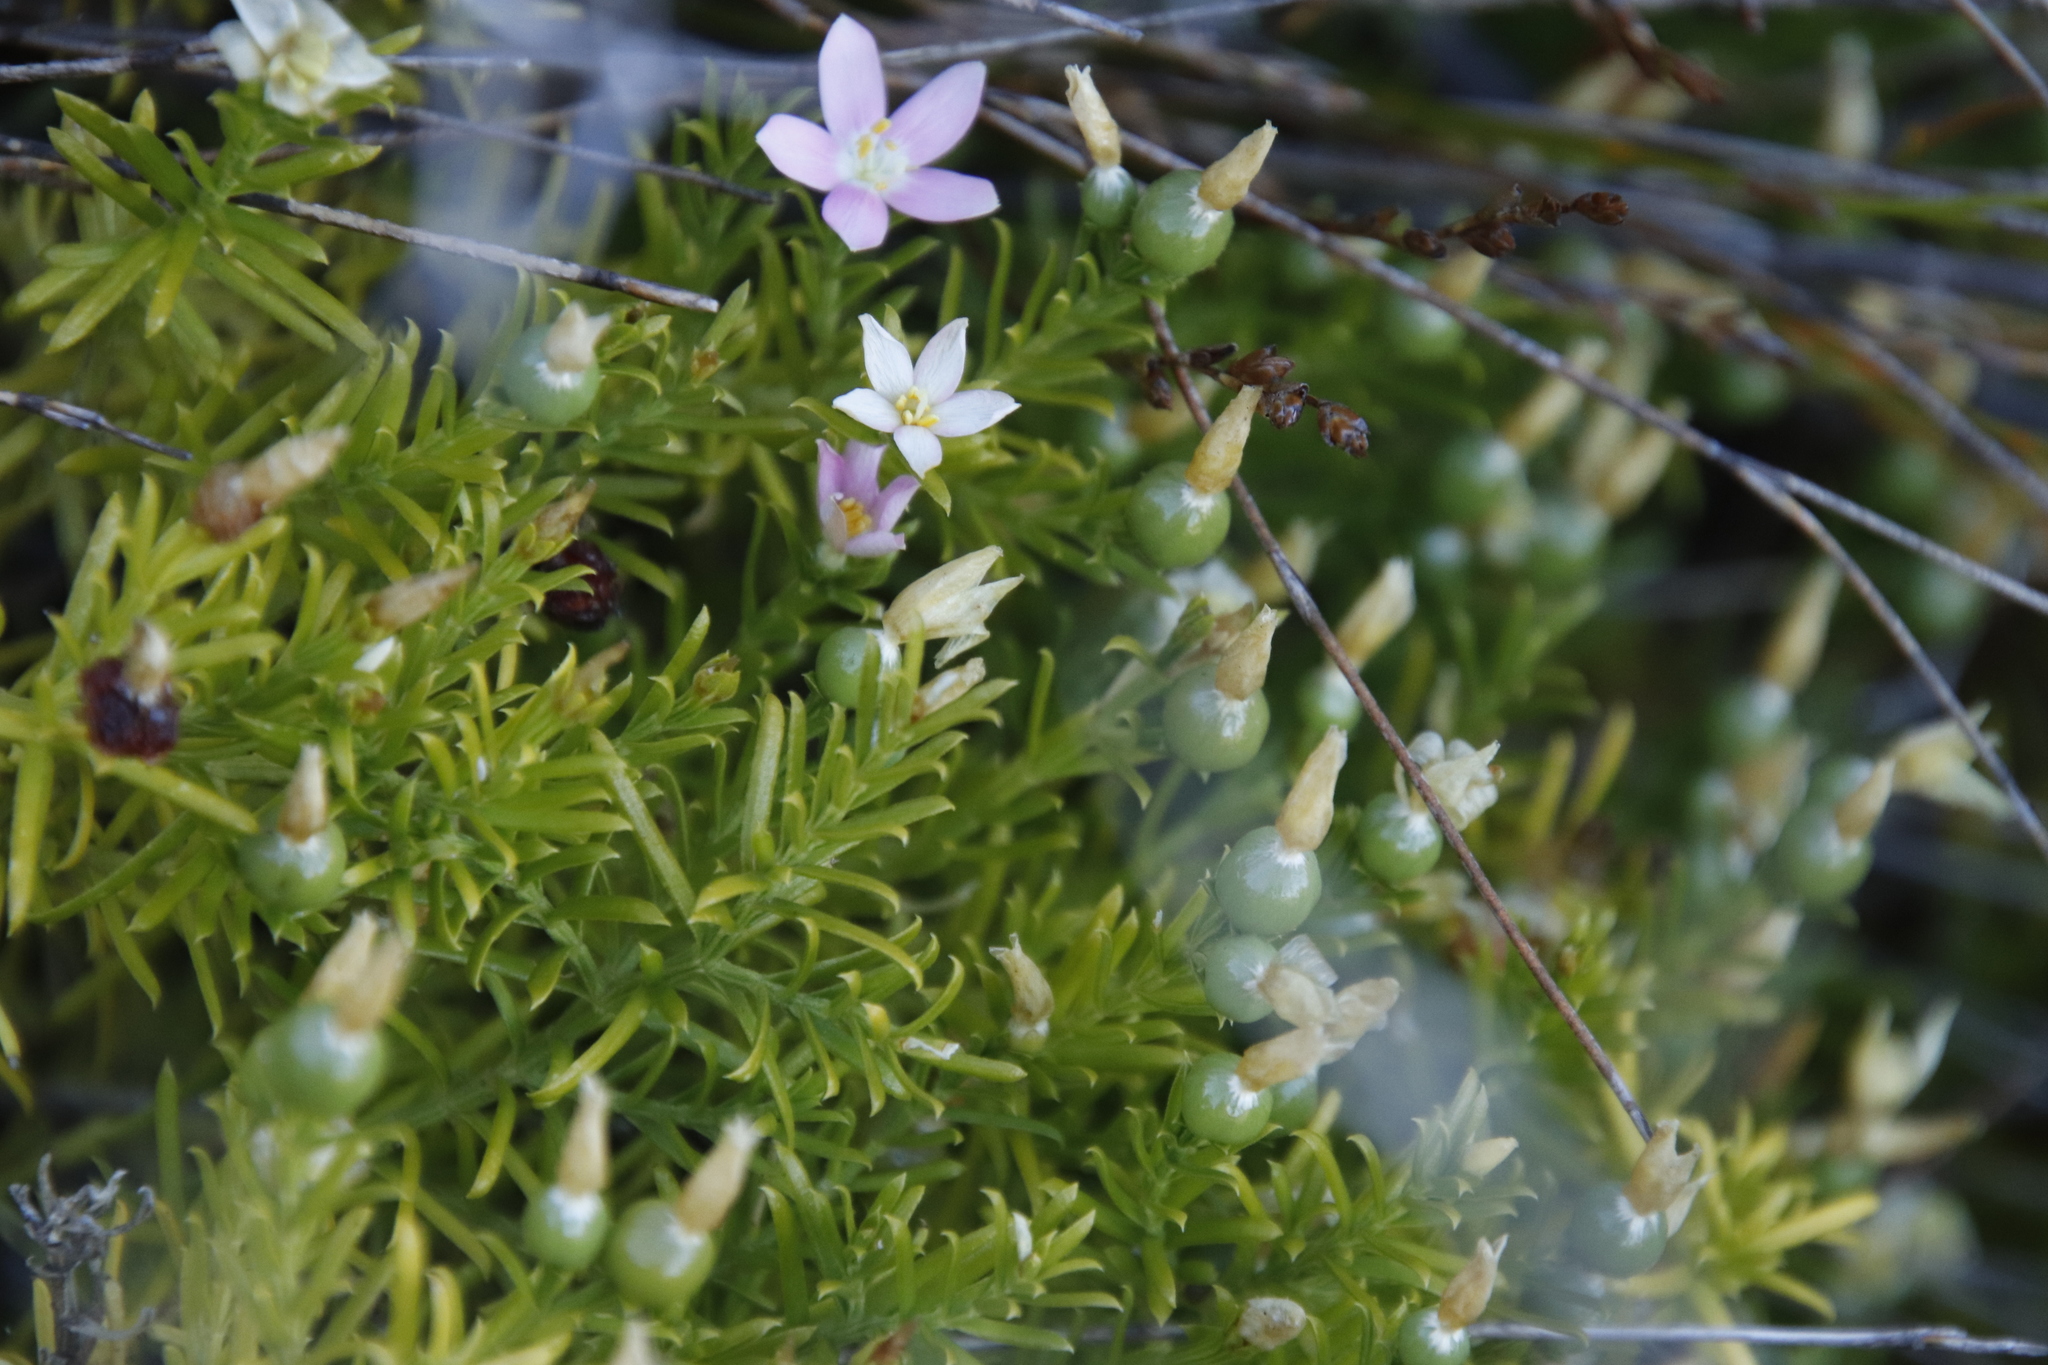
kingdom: Plantae
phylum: Tracheophyta
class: Magnoliopsida
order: Gentianales
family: Gentianaceae
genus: Chironia
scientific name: Chironia baccifera
